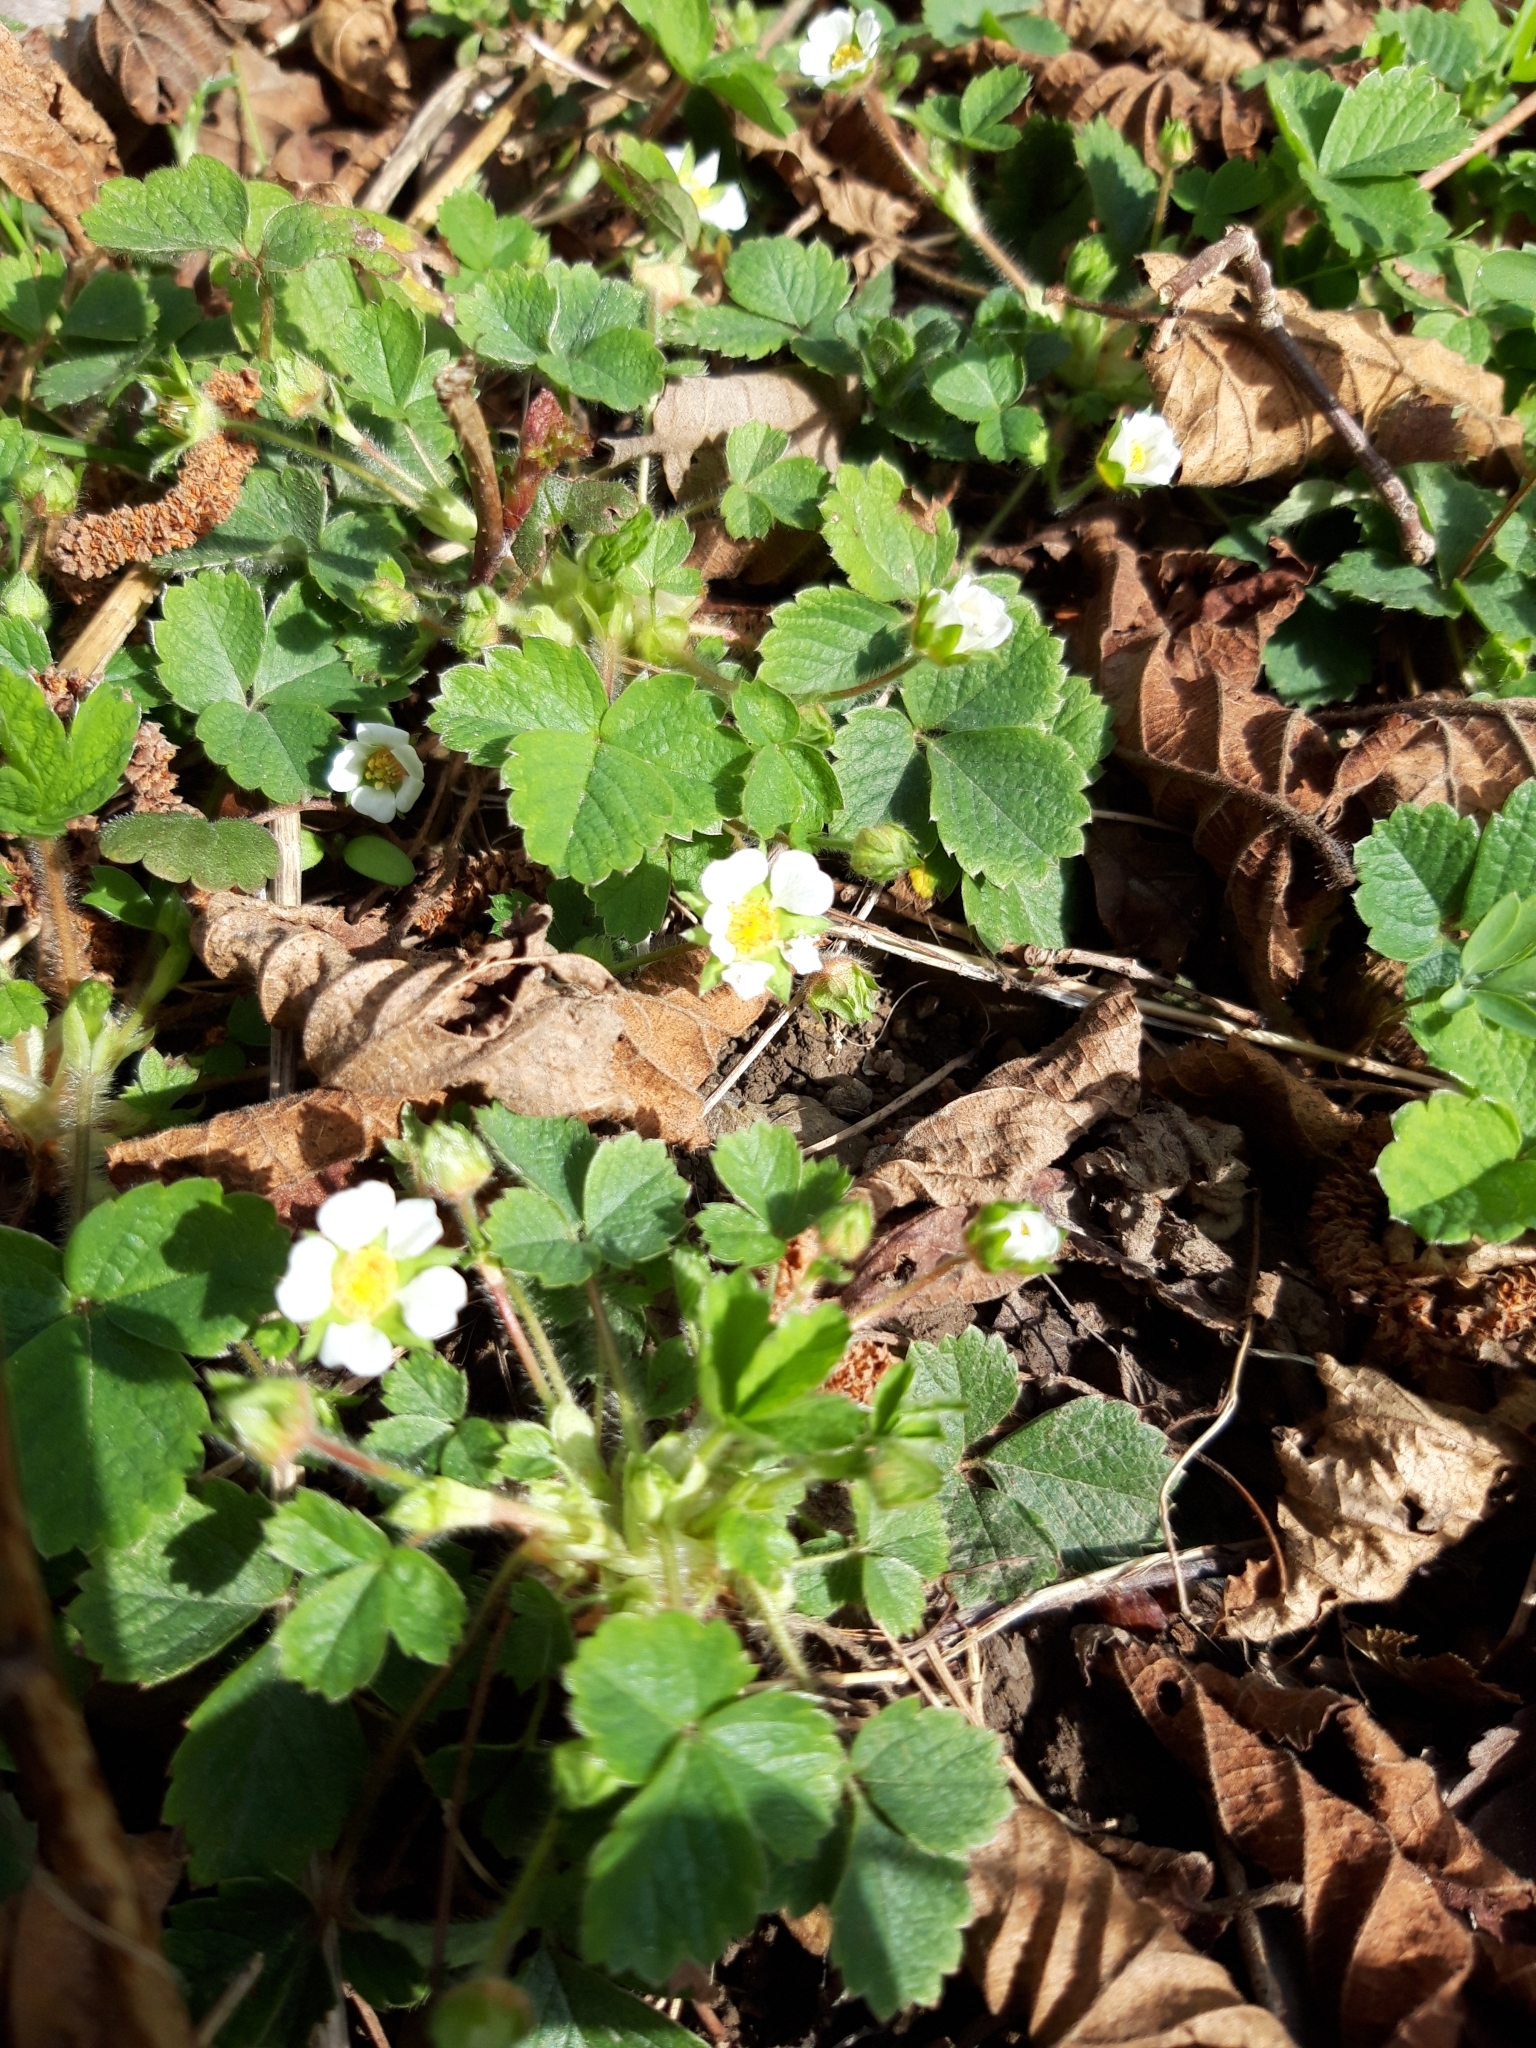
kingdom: Plantae
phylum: Tracheophyta
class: Magnoliopsida
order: Rosales
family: Rosaceae
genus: Potentilla
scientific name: Potentilla sterilis
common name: Barren strawberry
